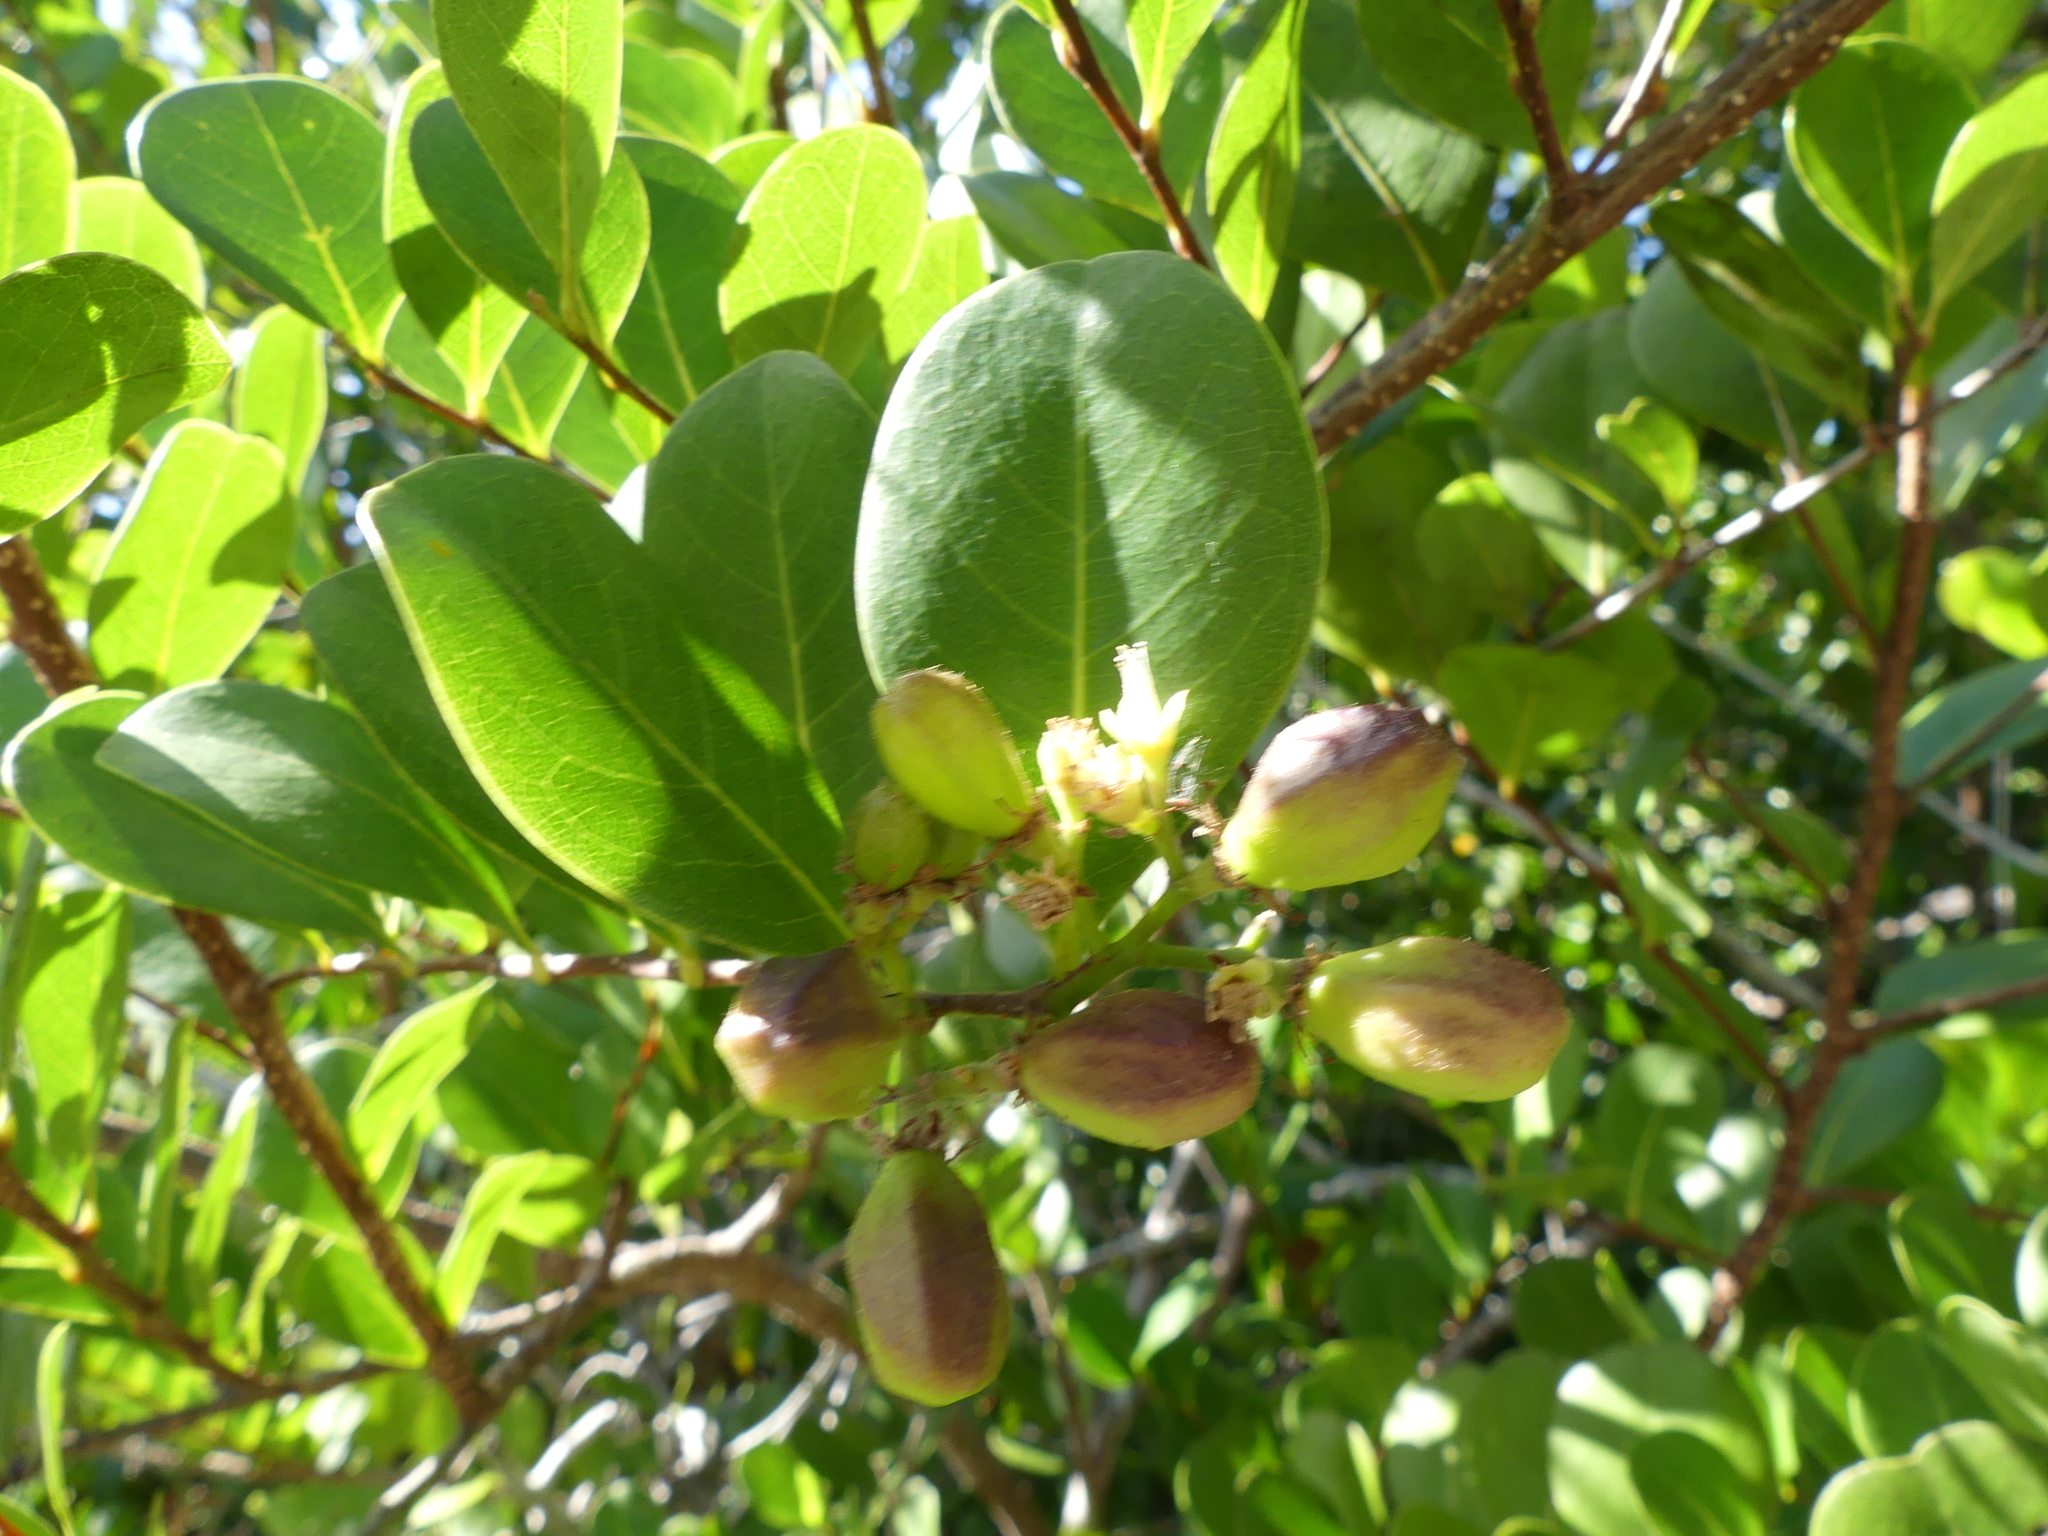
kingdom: Plantae
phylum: Tracheophyta
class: Magnoliopsida
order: Malpighiales
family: Chrysobalanaceae
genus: Chrysobalanus
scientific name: Chrysobalanus icaco
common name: Coco plum
